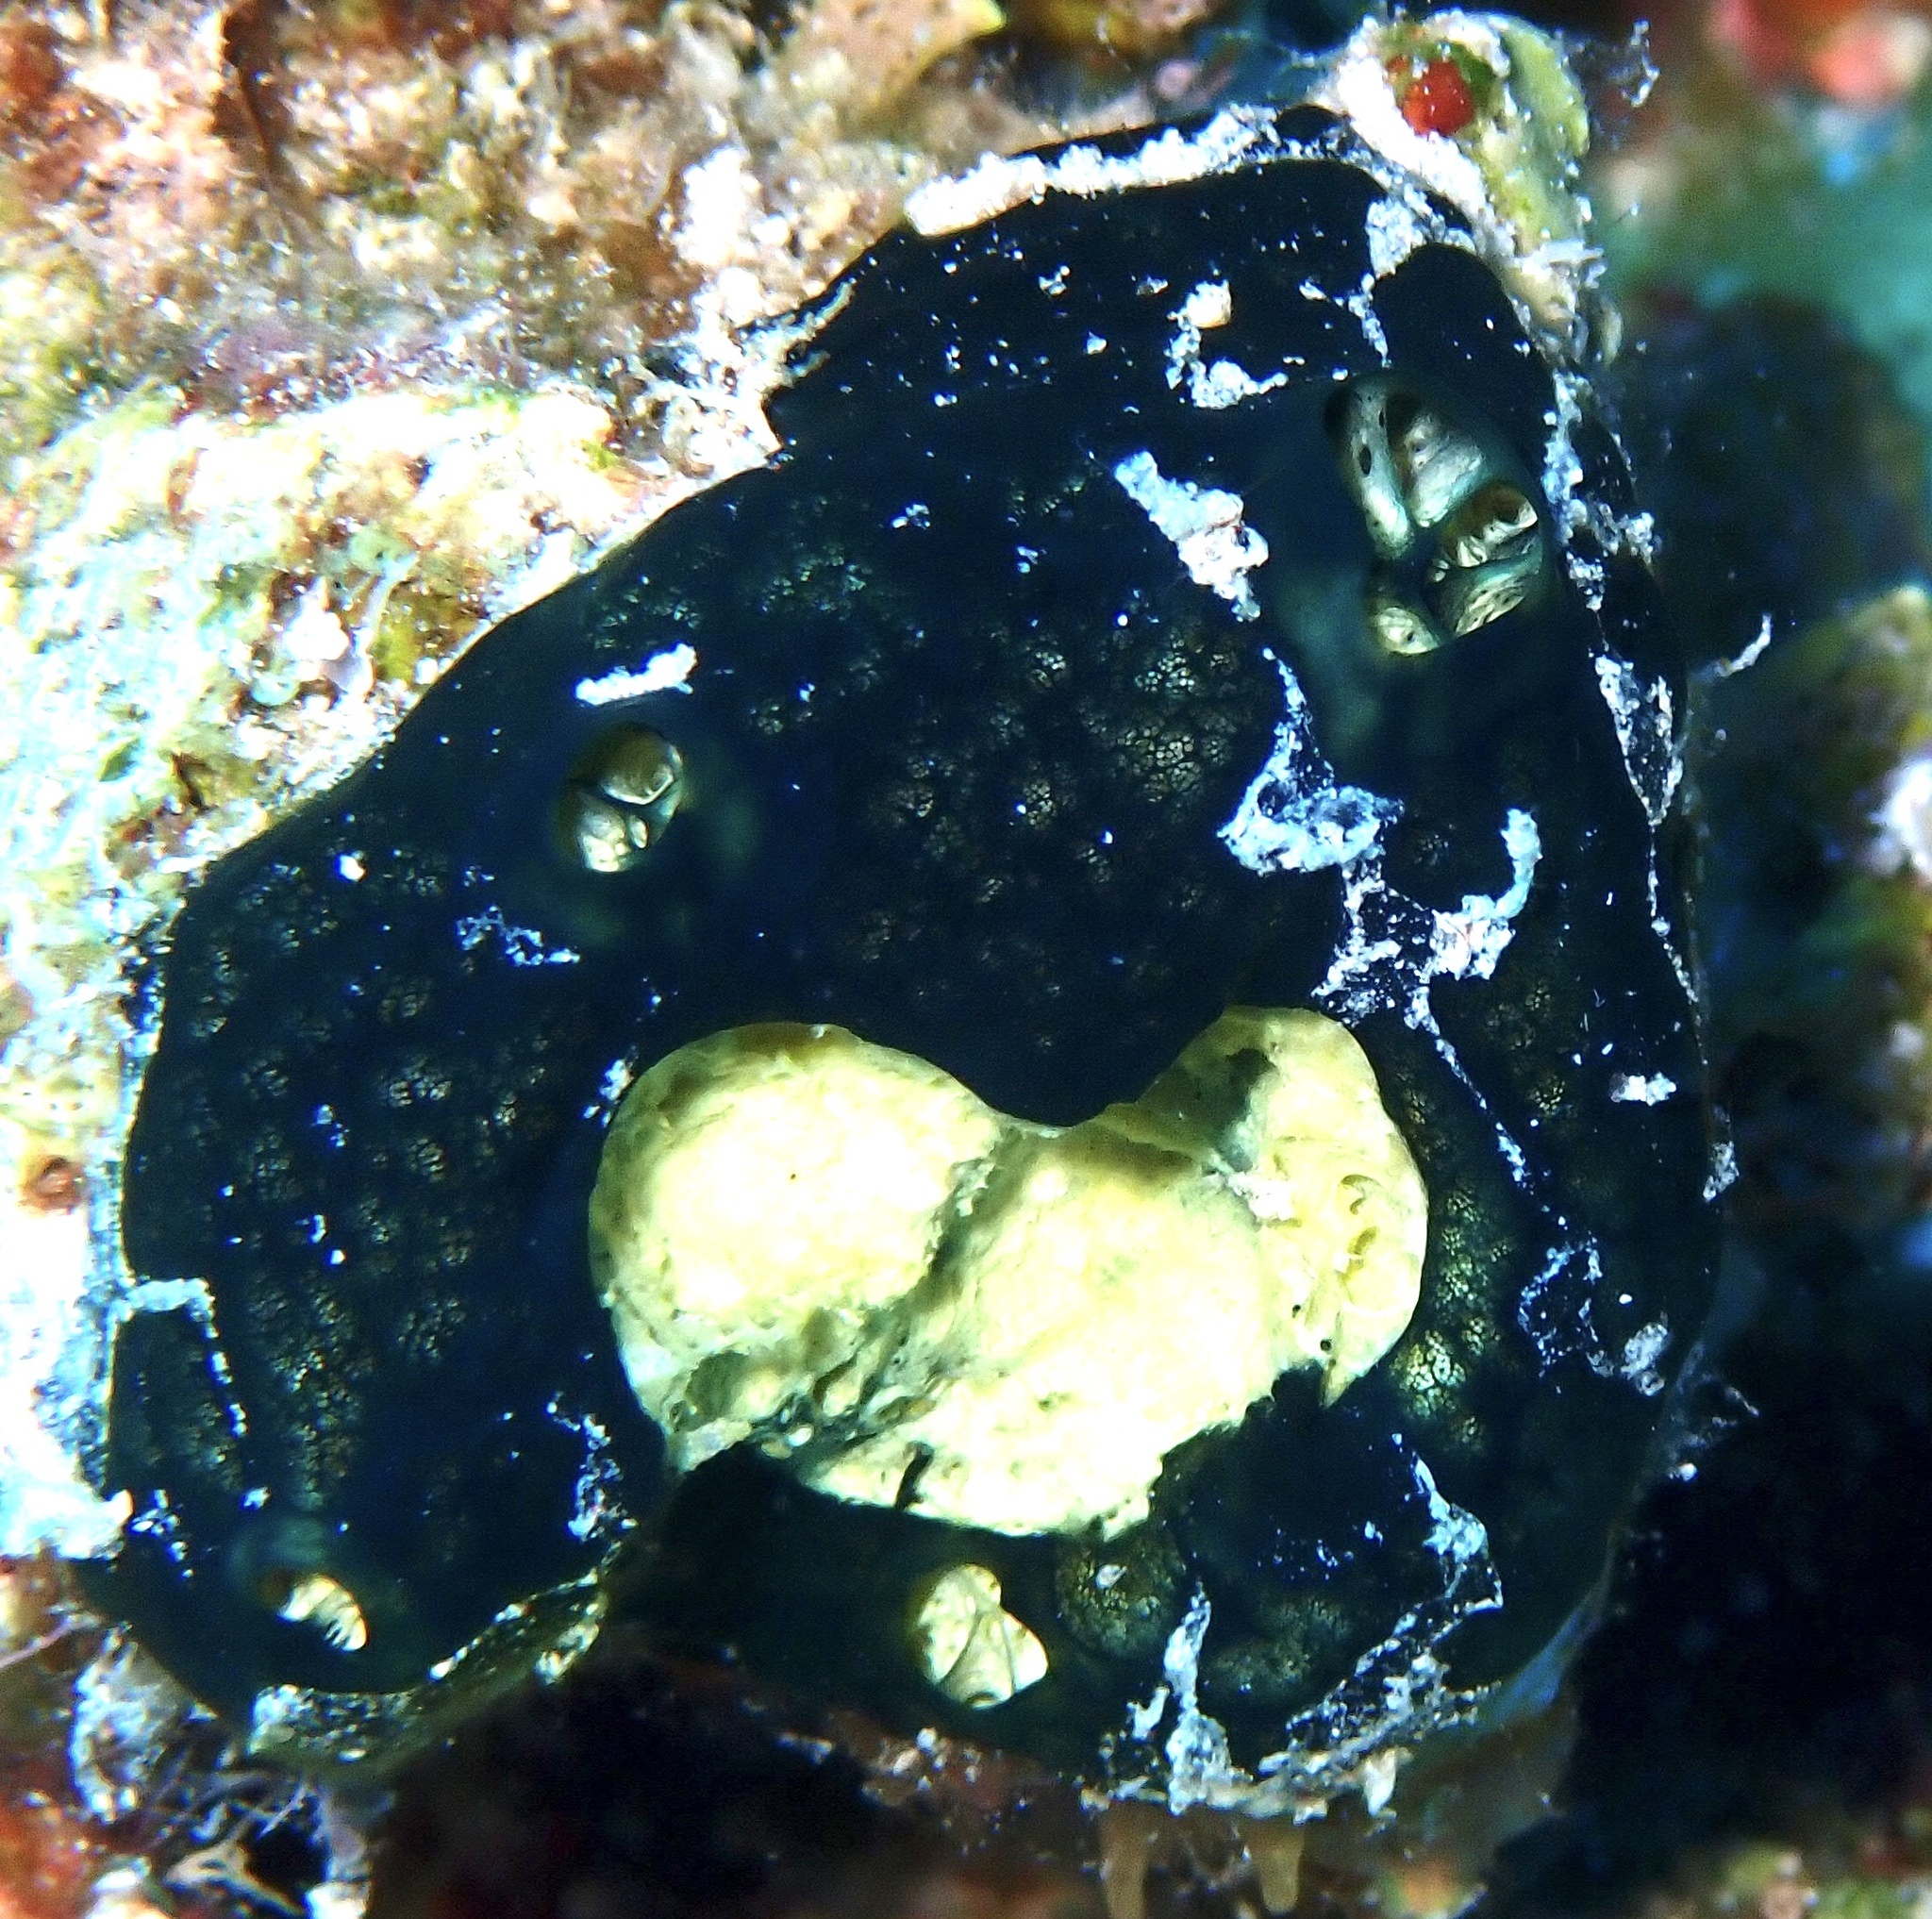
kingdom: Animalia
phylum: Porifera
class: Demospongiae
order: Poecilosclerida
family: Hymedesmiidae
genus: Hemimycale
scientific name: Hemimycale arabica
